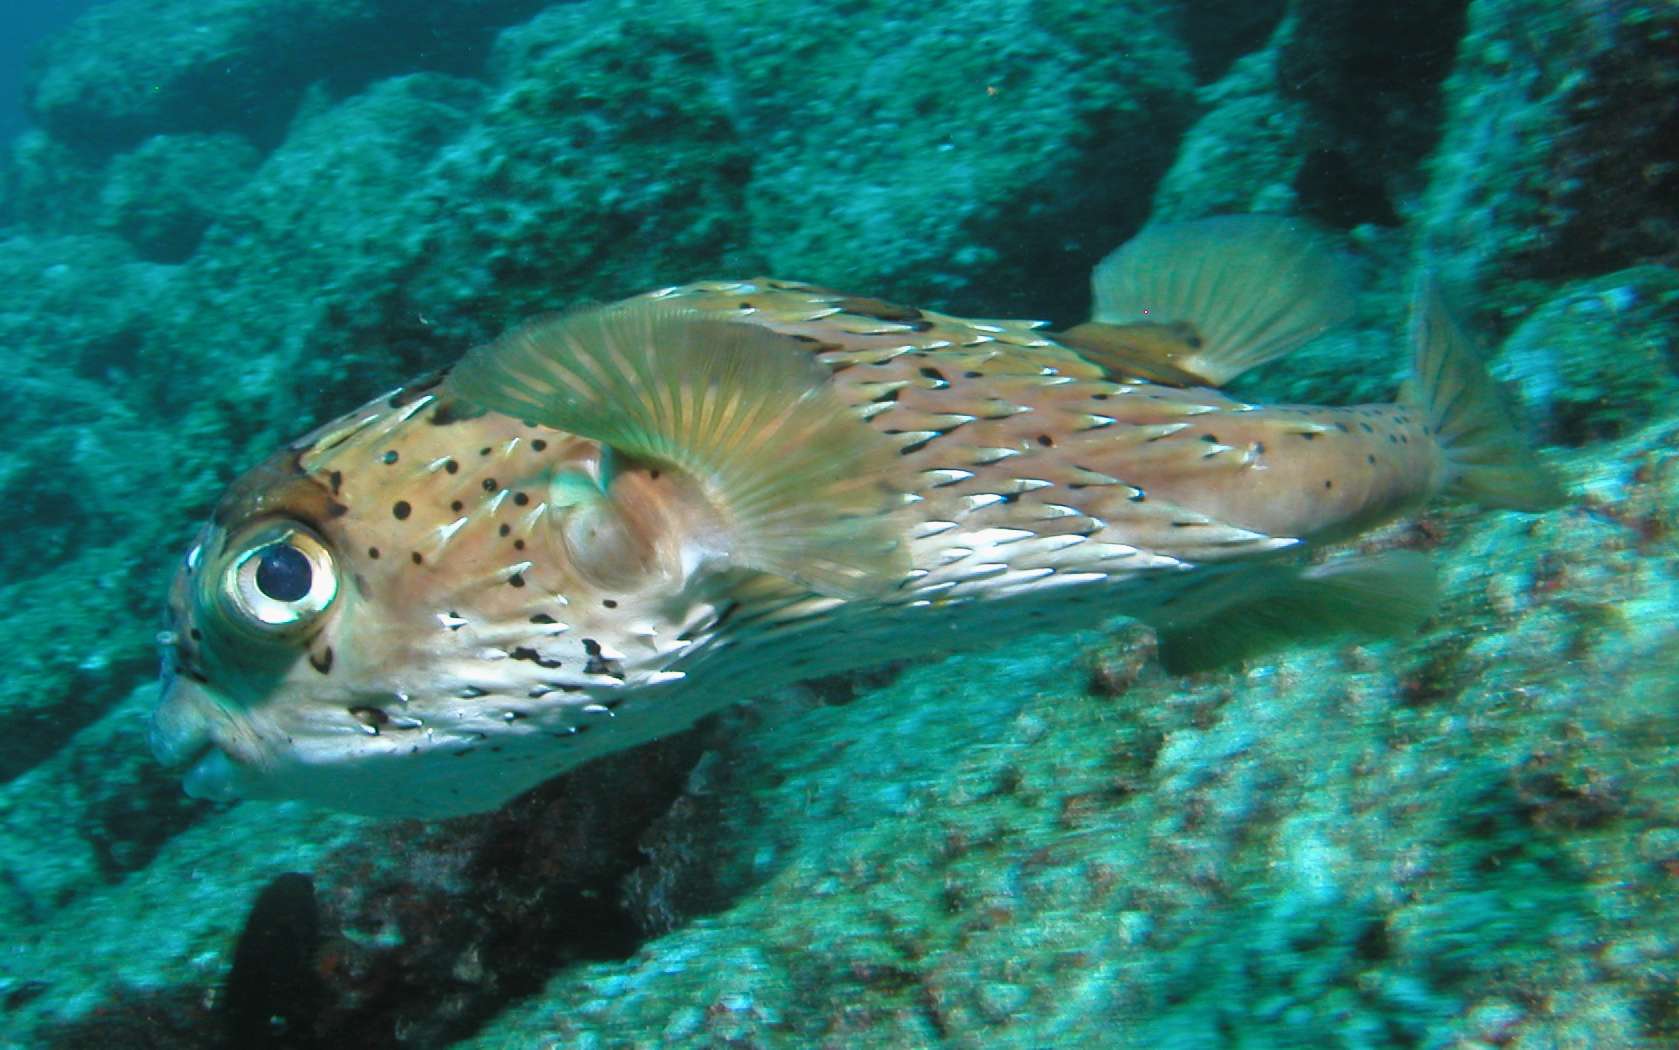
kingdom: Animalia
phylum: Chordata
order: Tetraodontiformes
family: Diodontidae
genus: Diodon
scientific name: Diodon holocanthus
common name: Balloonfish
